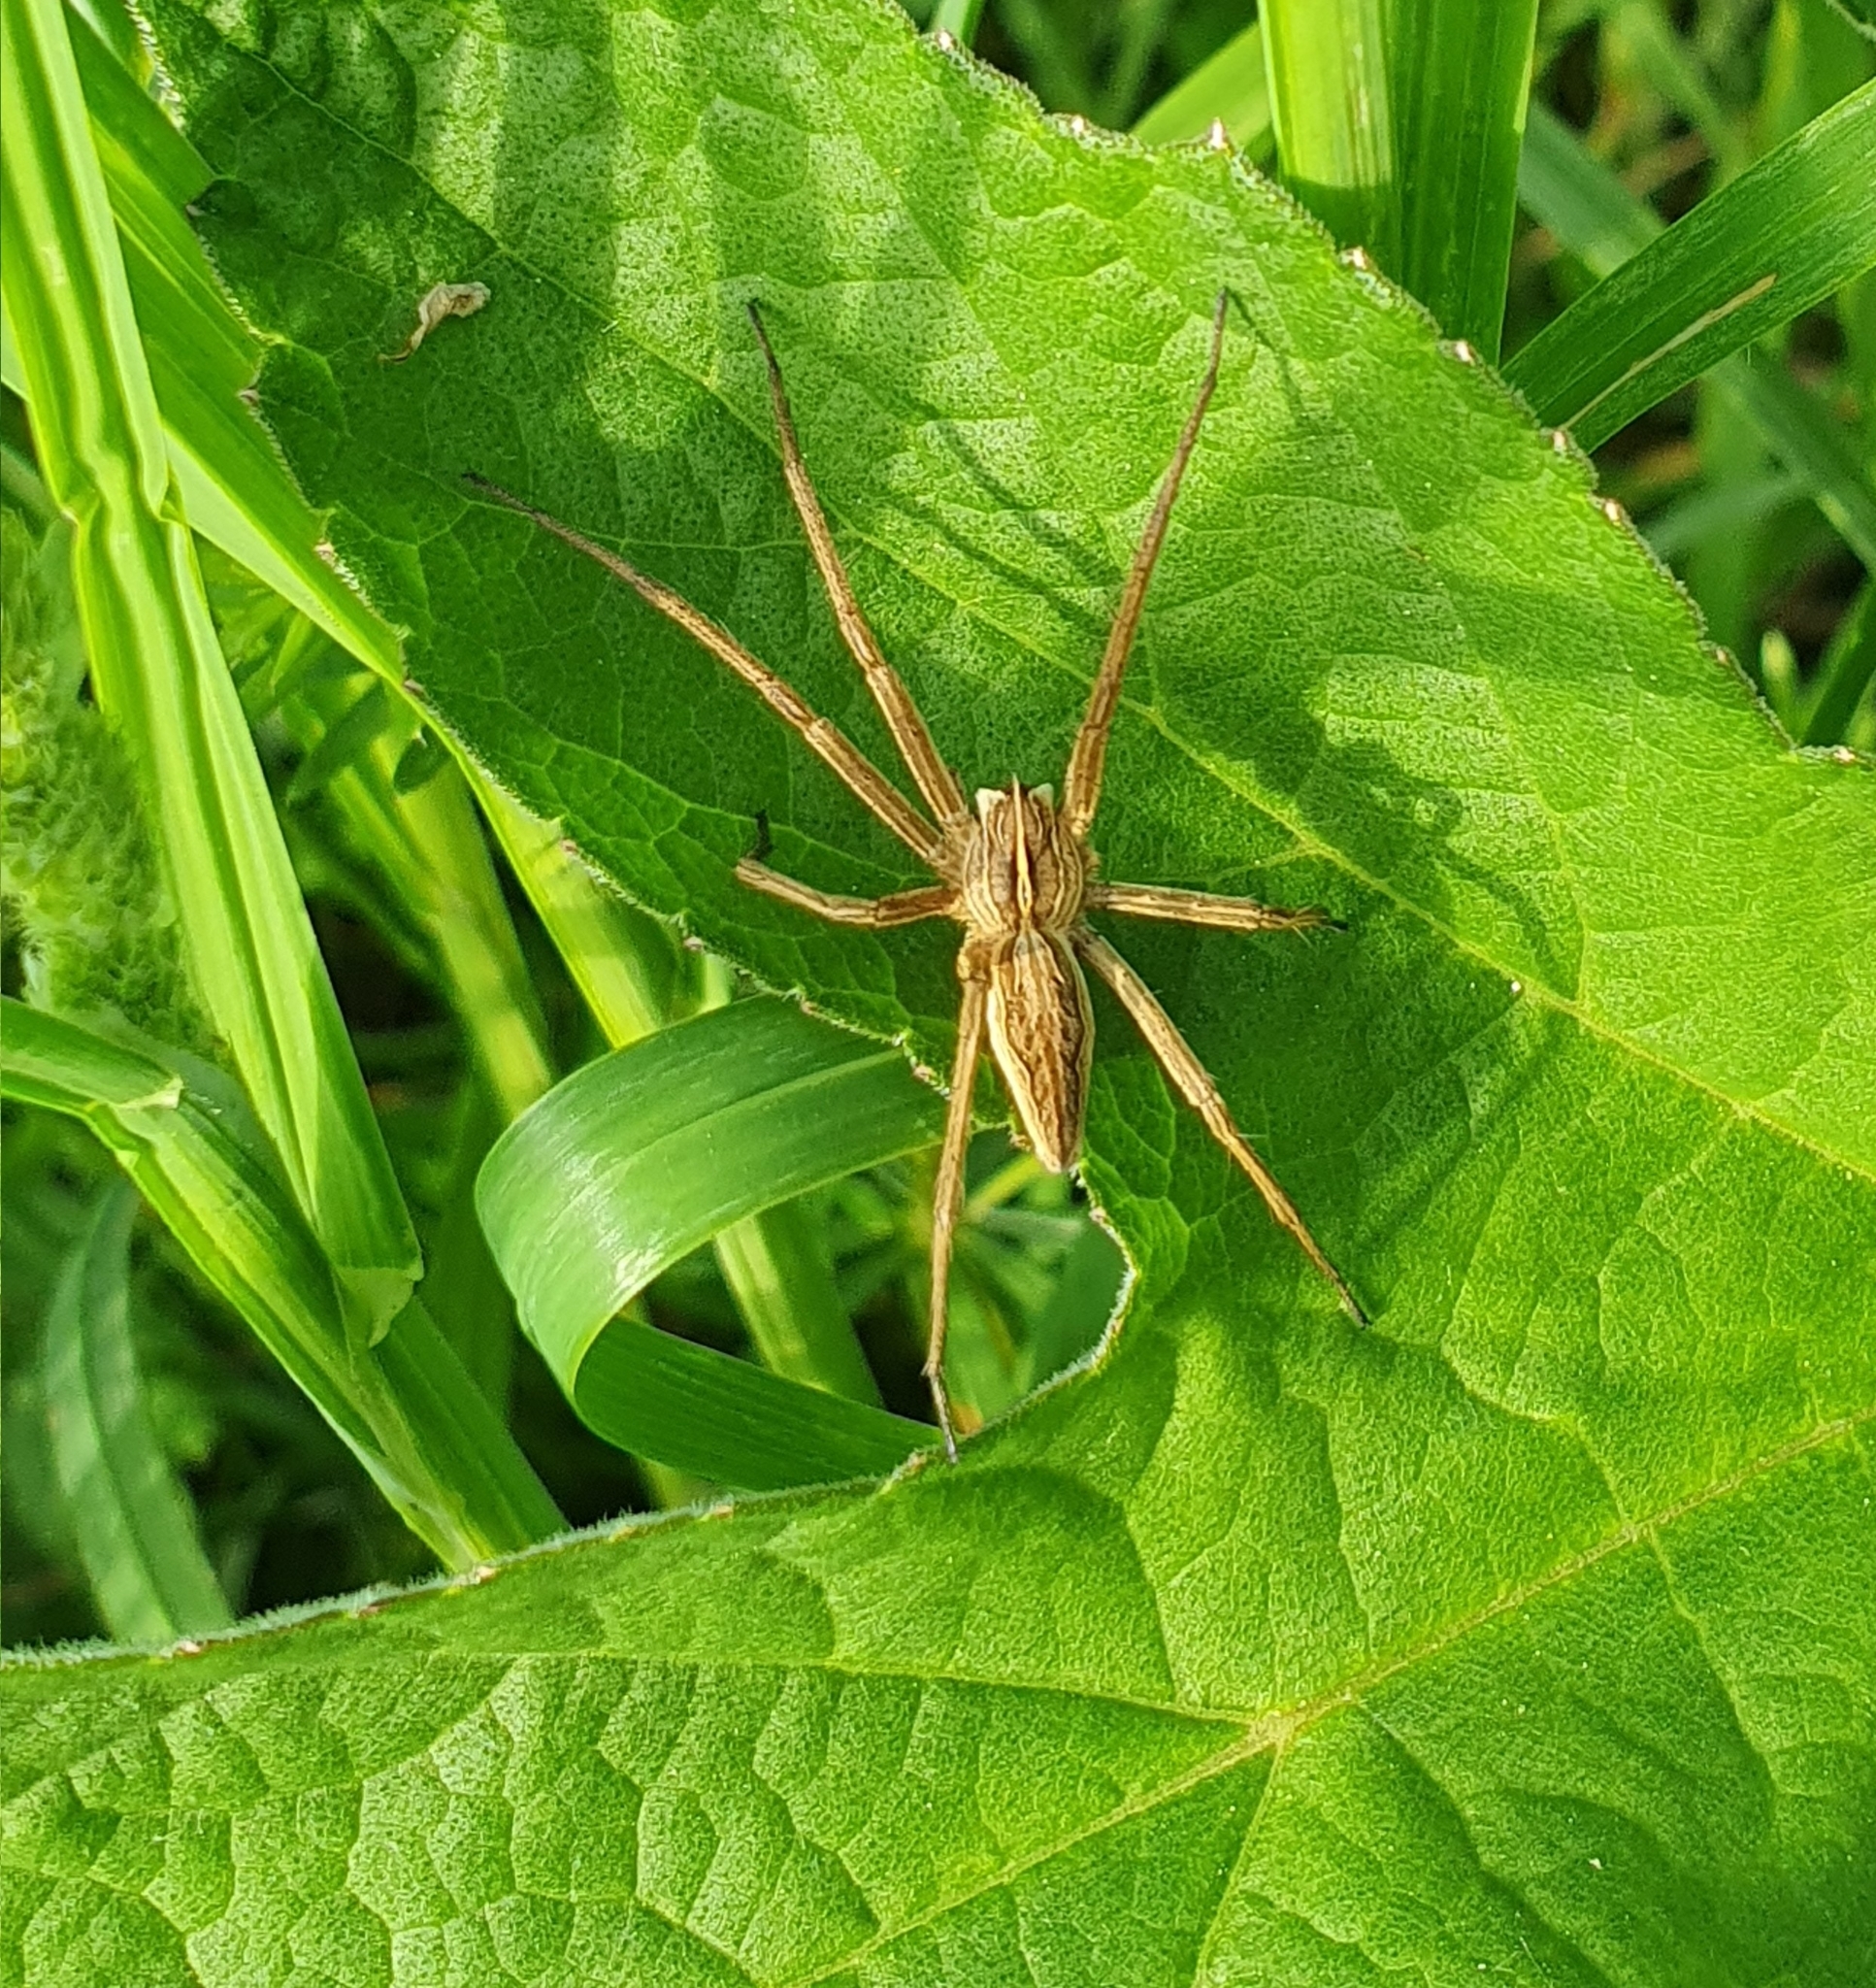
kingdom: Animalia
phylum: Arthropoda
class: Arachnida
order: Araneae
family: Pisauridae
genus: Pisaura
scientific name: Pisaura mirabilis
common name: Tent spider
